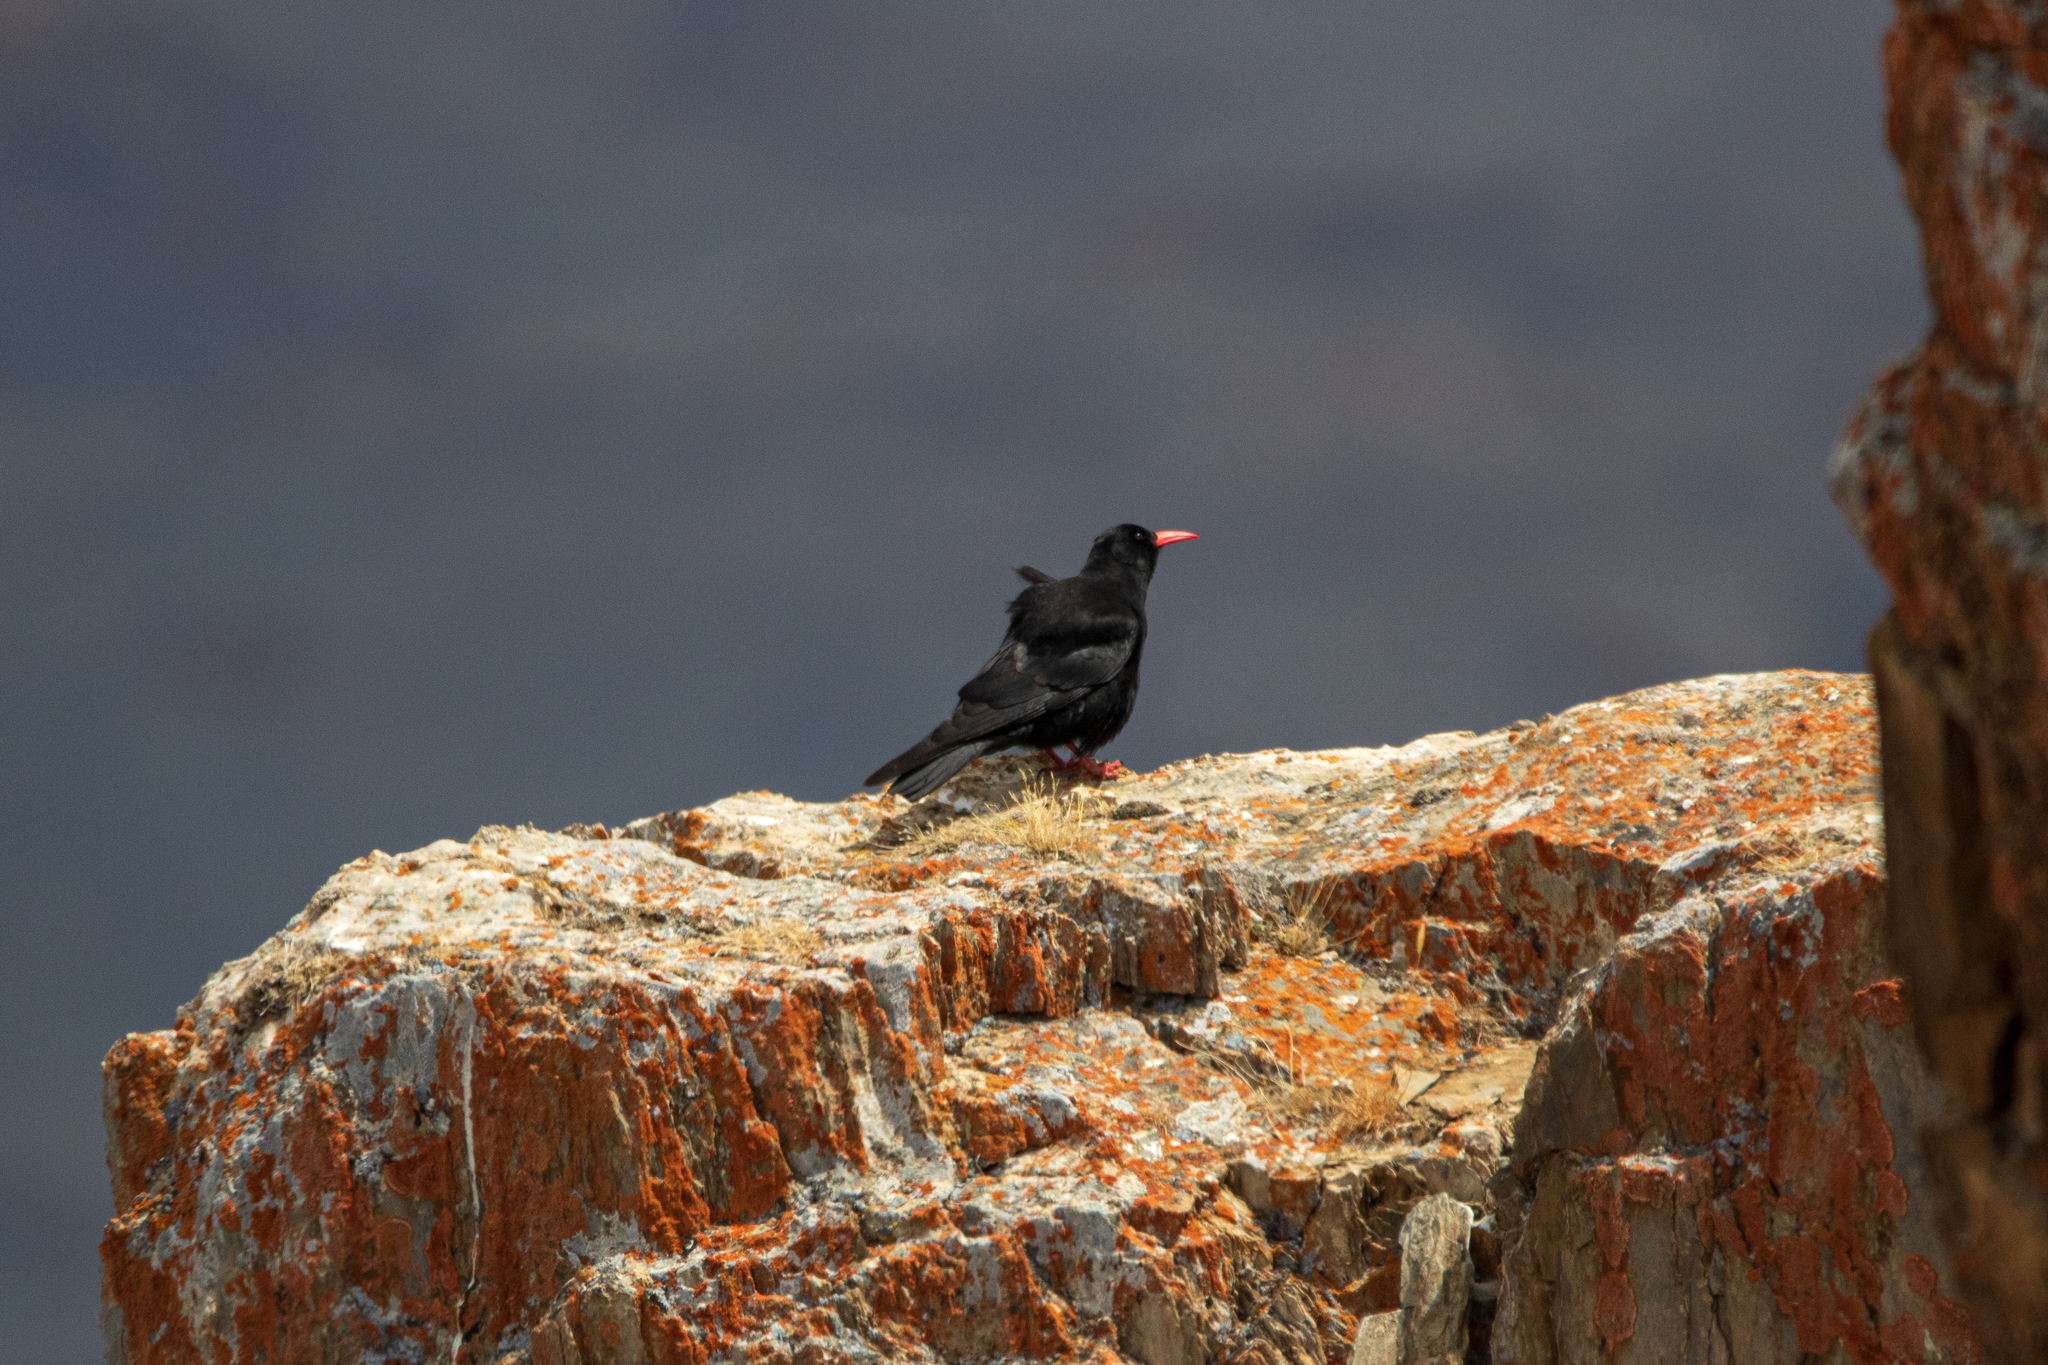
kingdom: Animalia
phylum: Chordata
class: Aves
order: Passeriformes
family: Corvidae
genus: Pyrrhocorax
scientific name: Pyrrhocorax pyrrhocorax
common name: Red-billed chough
